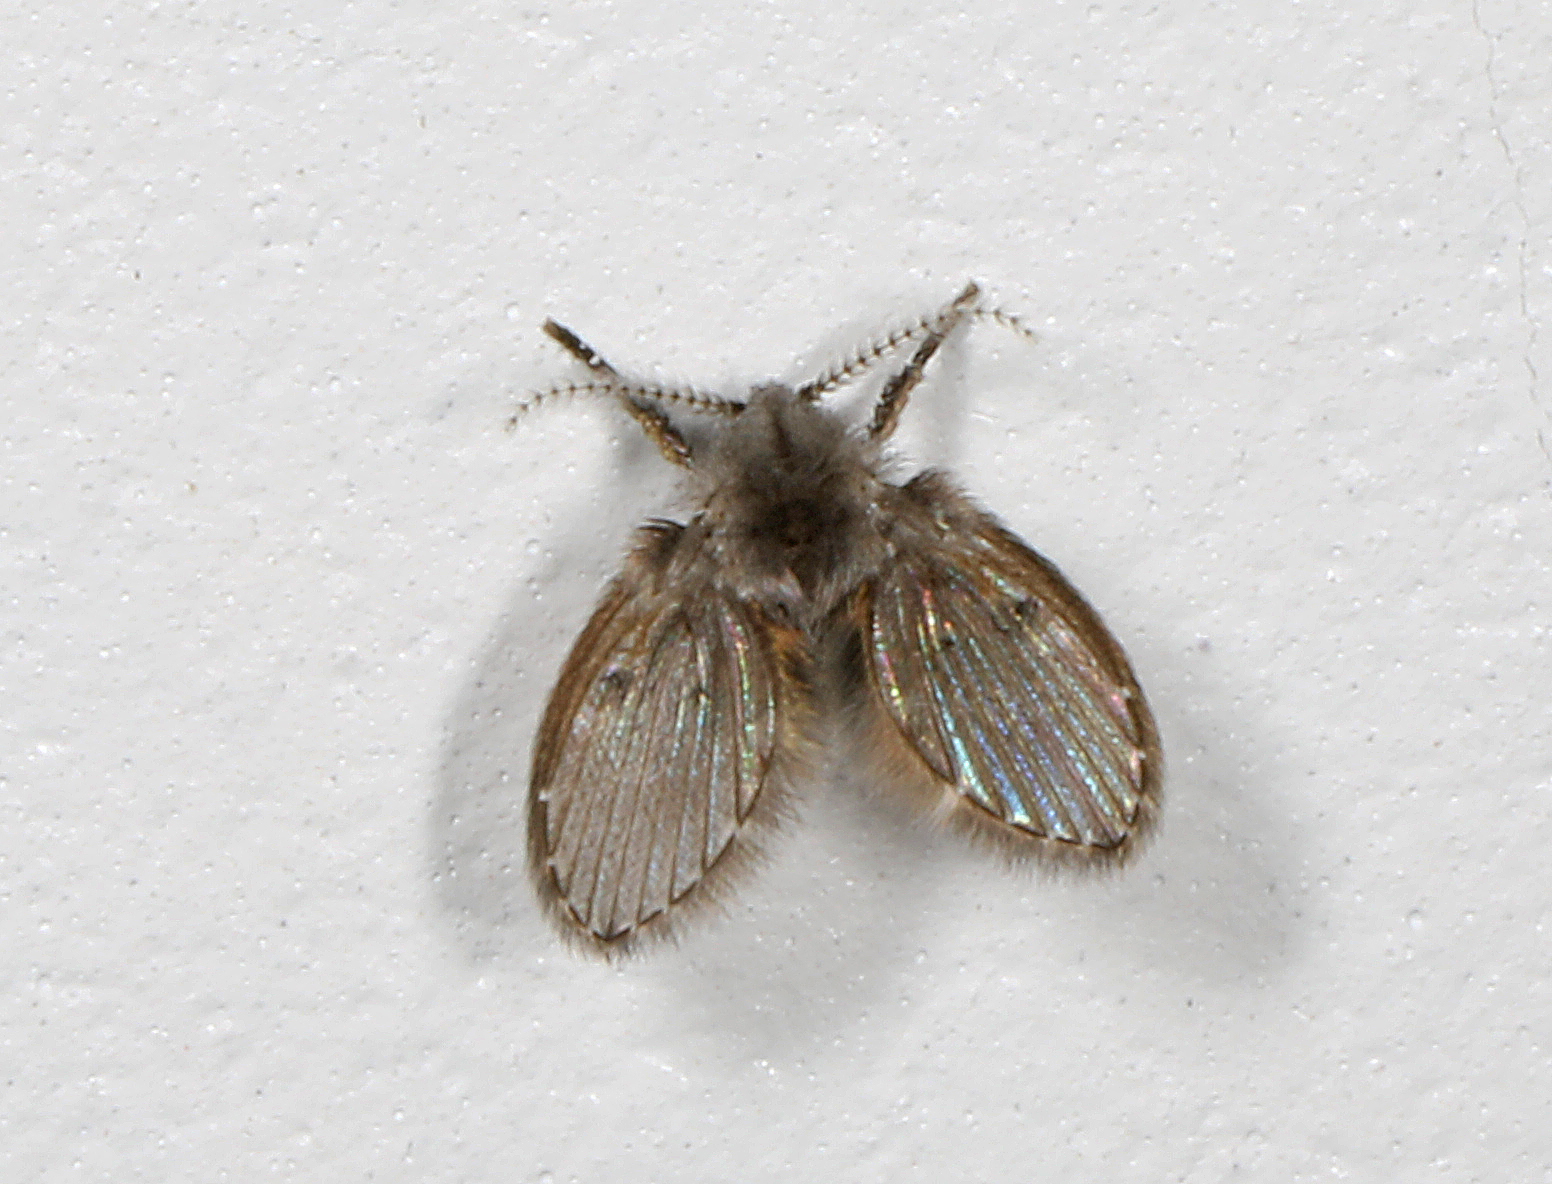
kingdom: Animalia
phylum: Arthropoda
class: Insecta
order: Diptera
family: Psychodidae
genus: Clogmia
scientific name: Clogmia albipunctatus
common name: White-spotted moth fly
